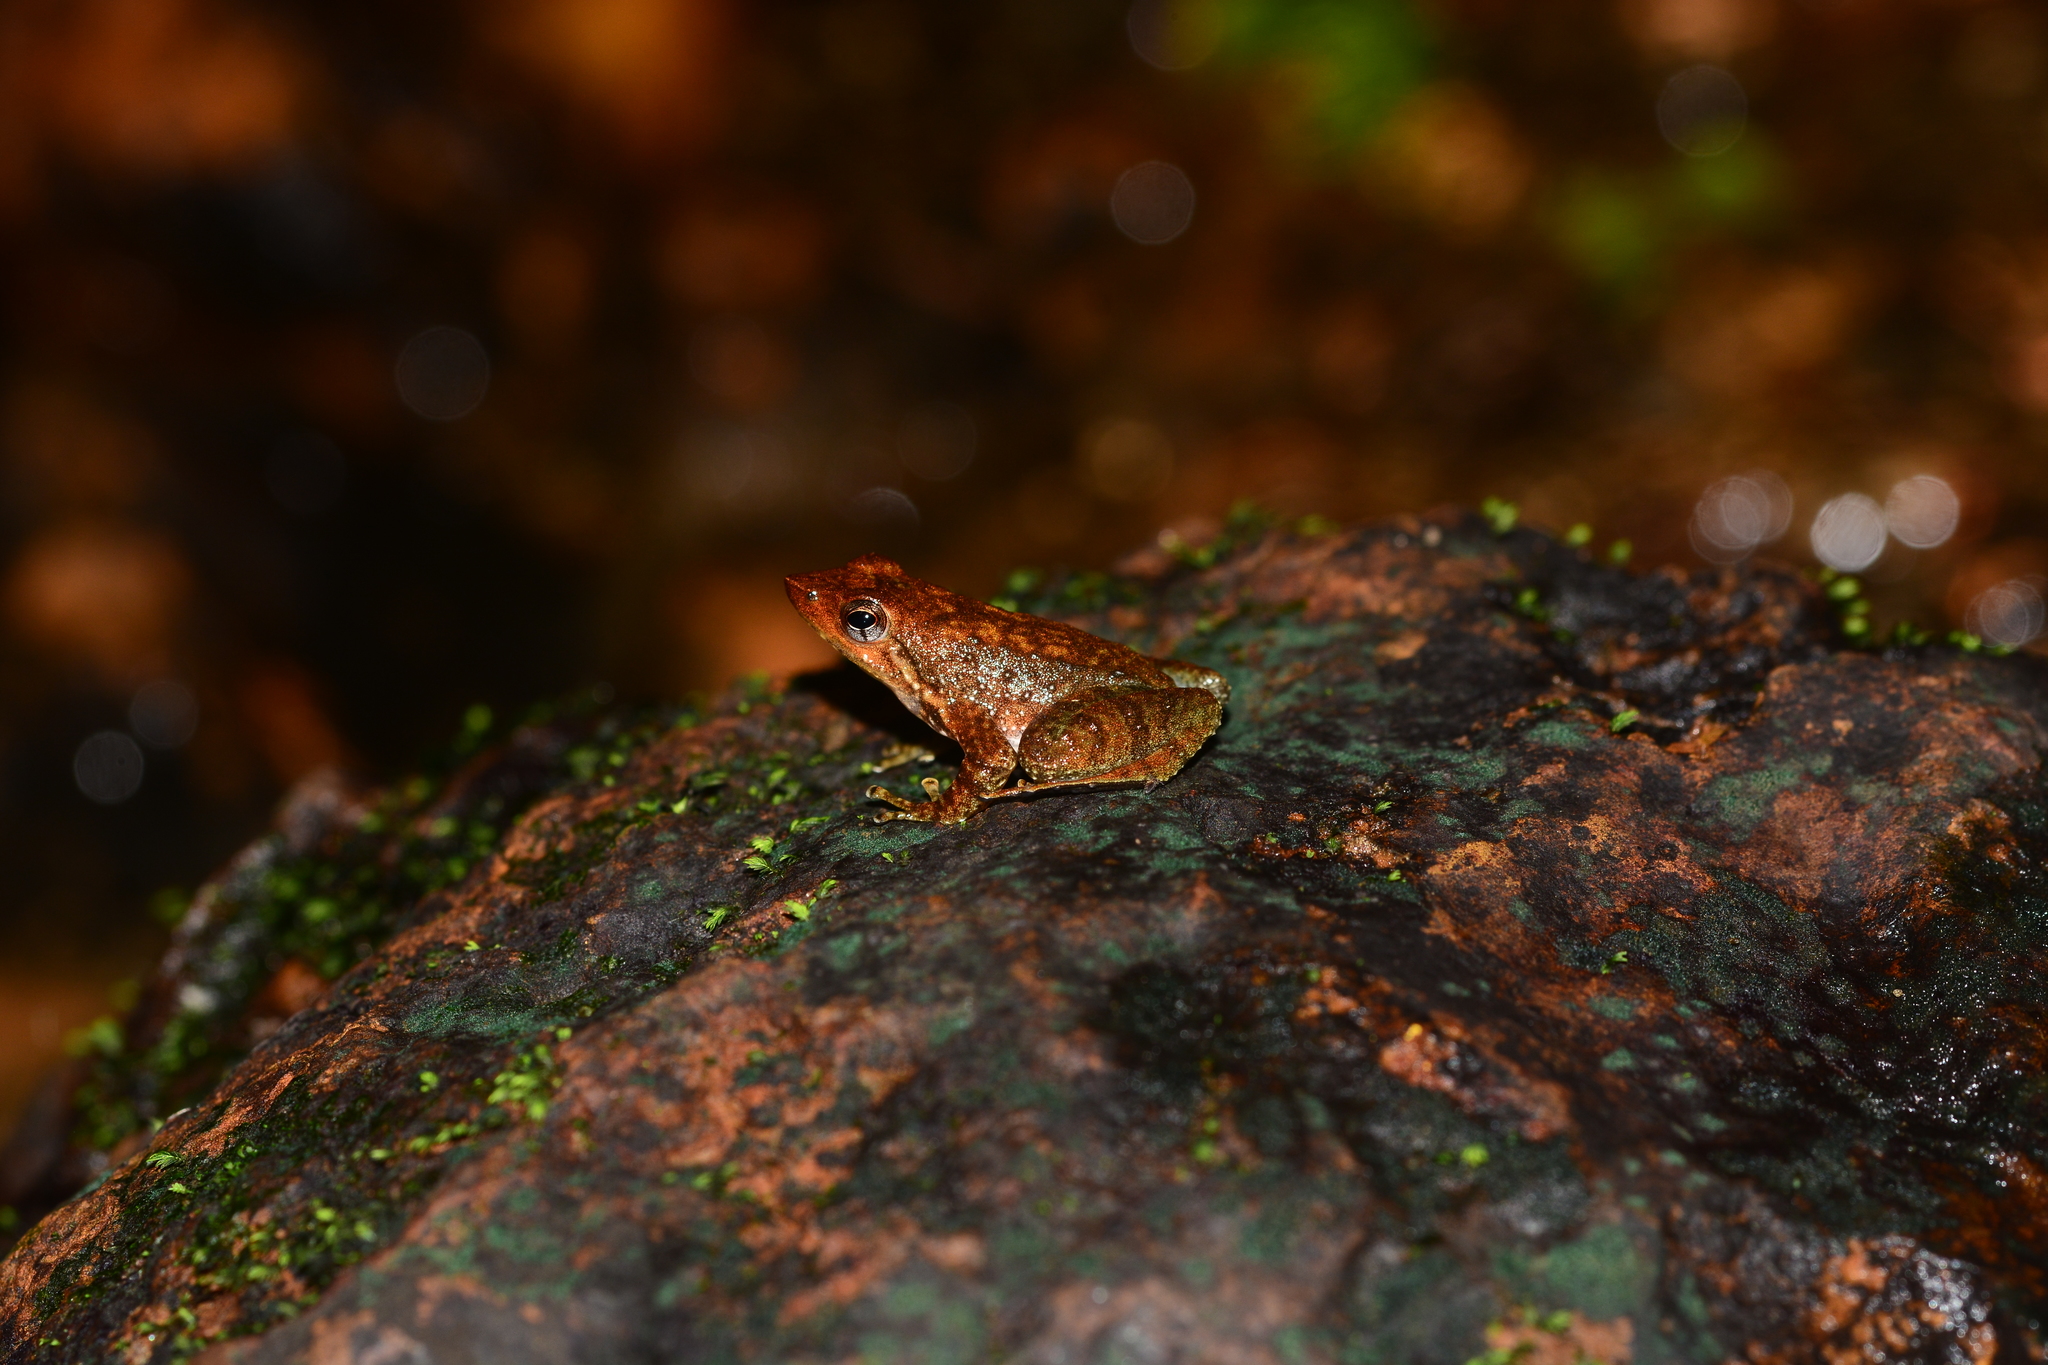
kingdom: Animalia
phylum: Chordata
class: Amphibia
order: Anura
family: Micrixalidae
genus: Micrixalus
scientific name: Micrixalus kottigeharensis
